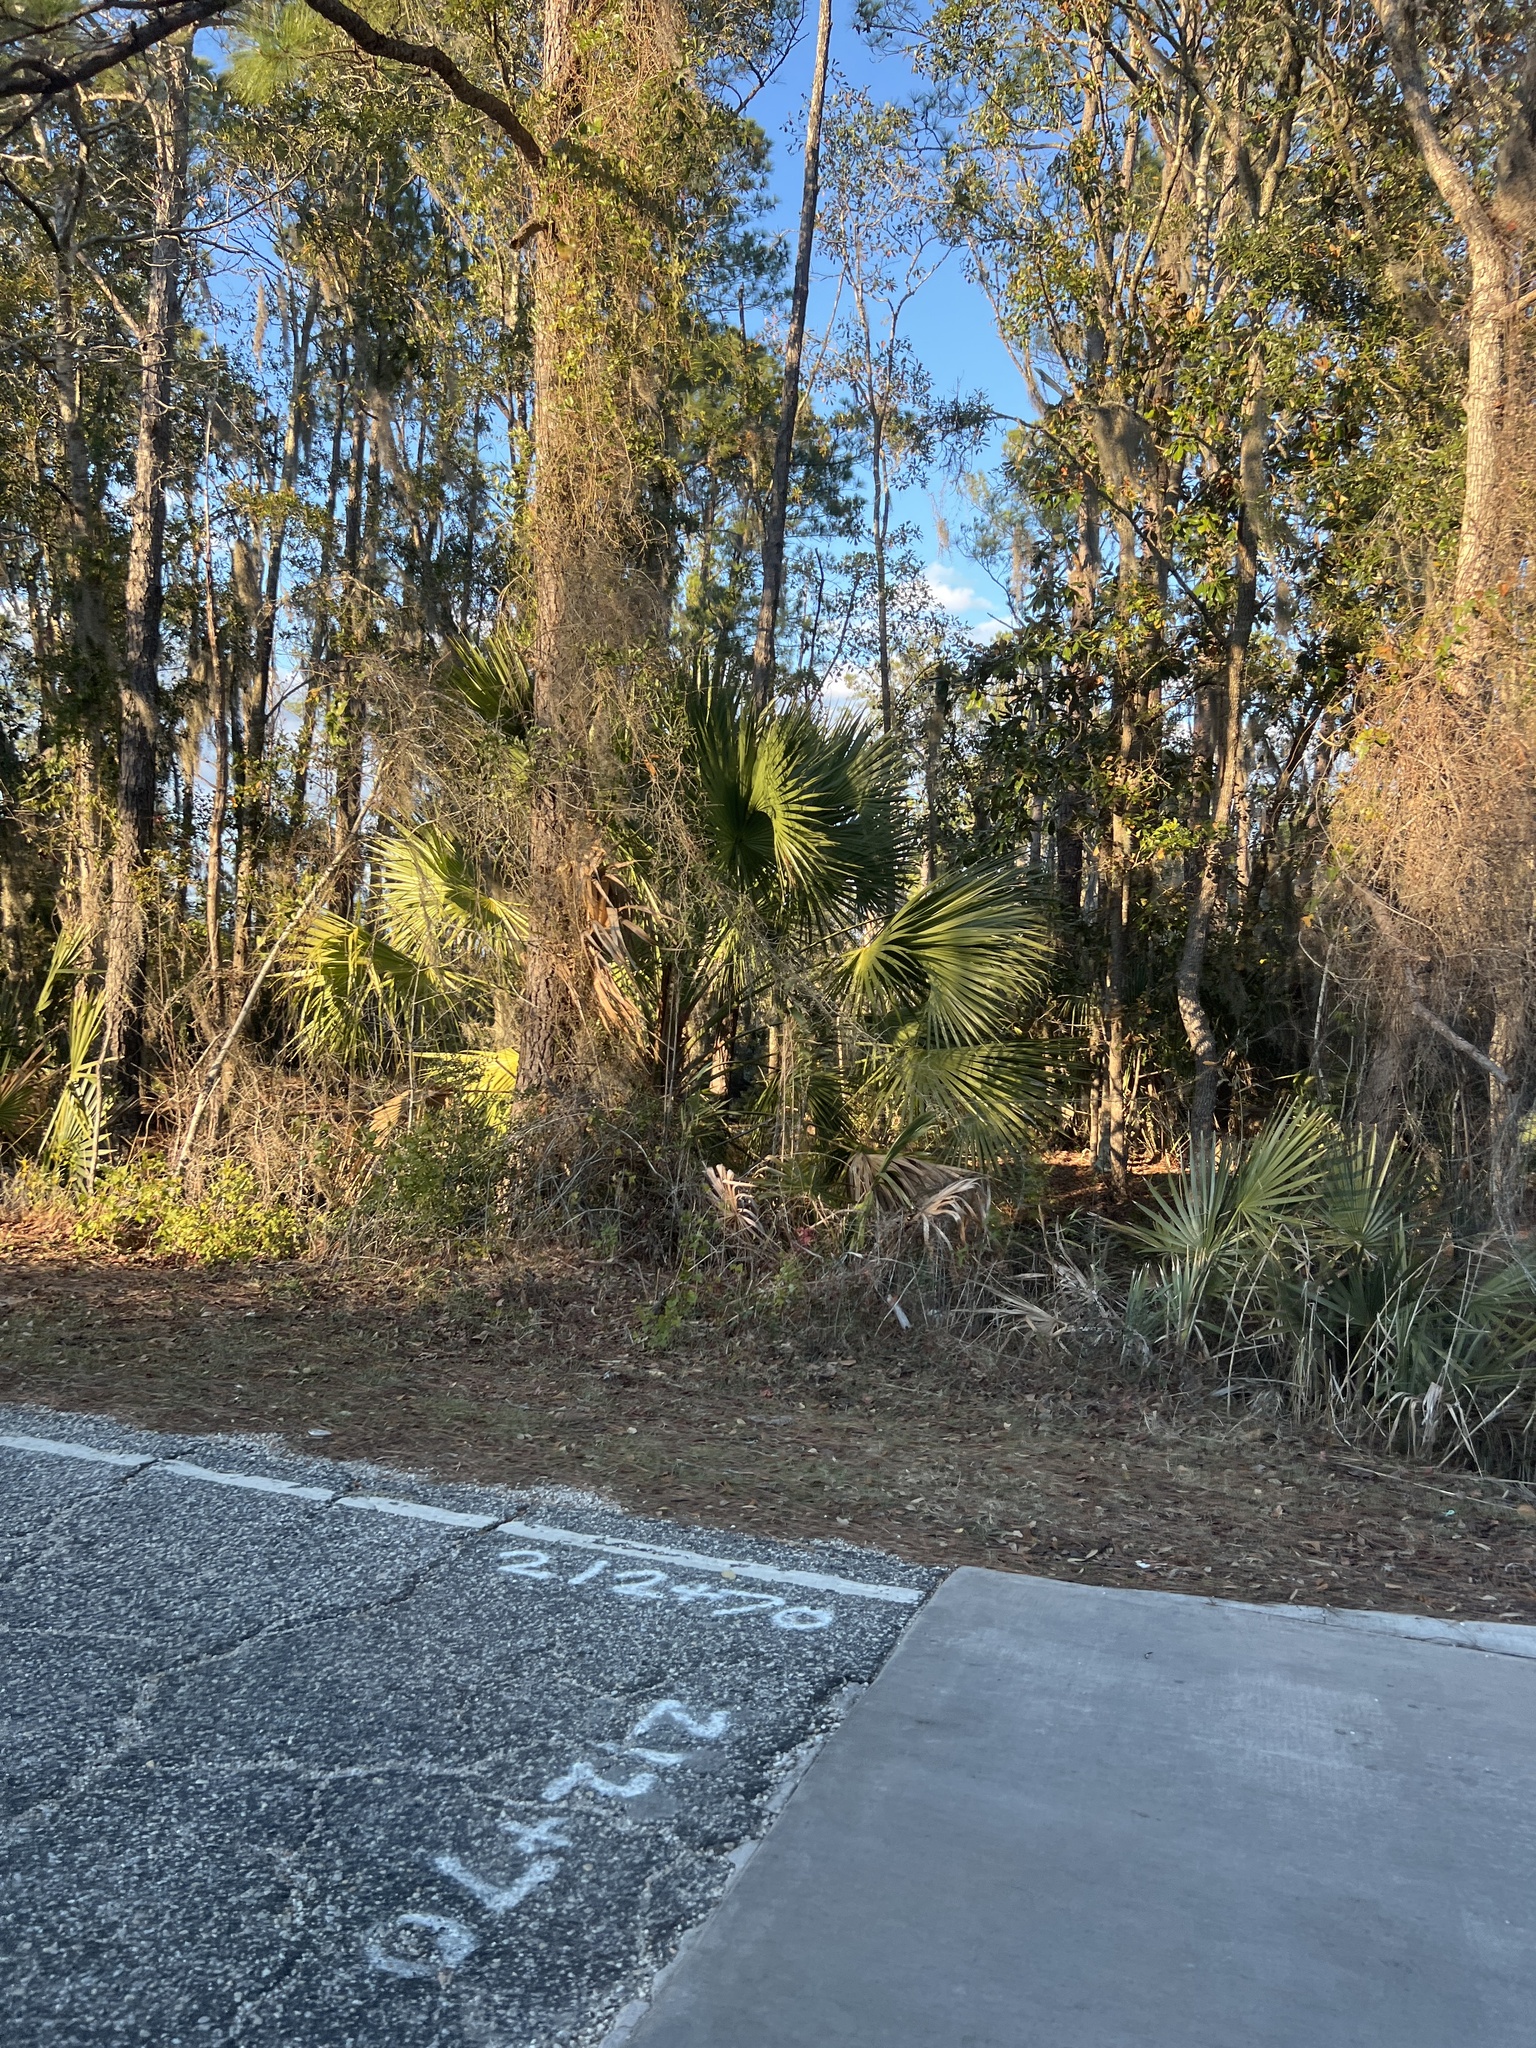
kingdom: Plantae
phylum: Tracheophyta
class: Liliopsida
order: Arecales
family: Arecaceae
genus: Sabal
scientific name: Sabal palmetto
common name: Blue palmetto
